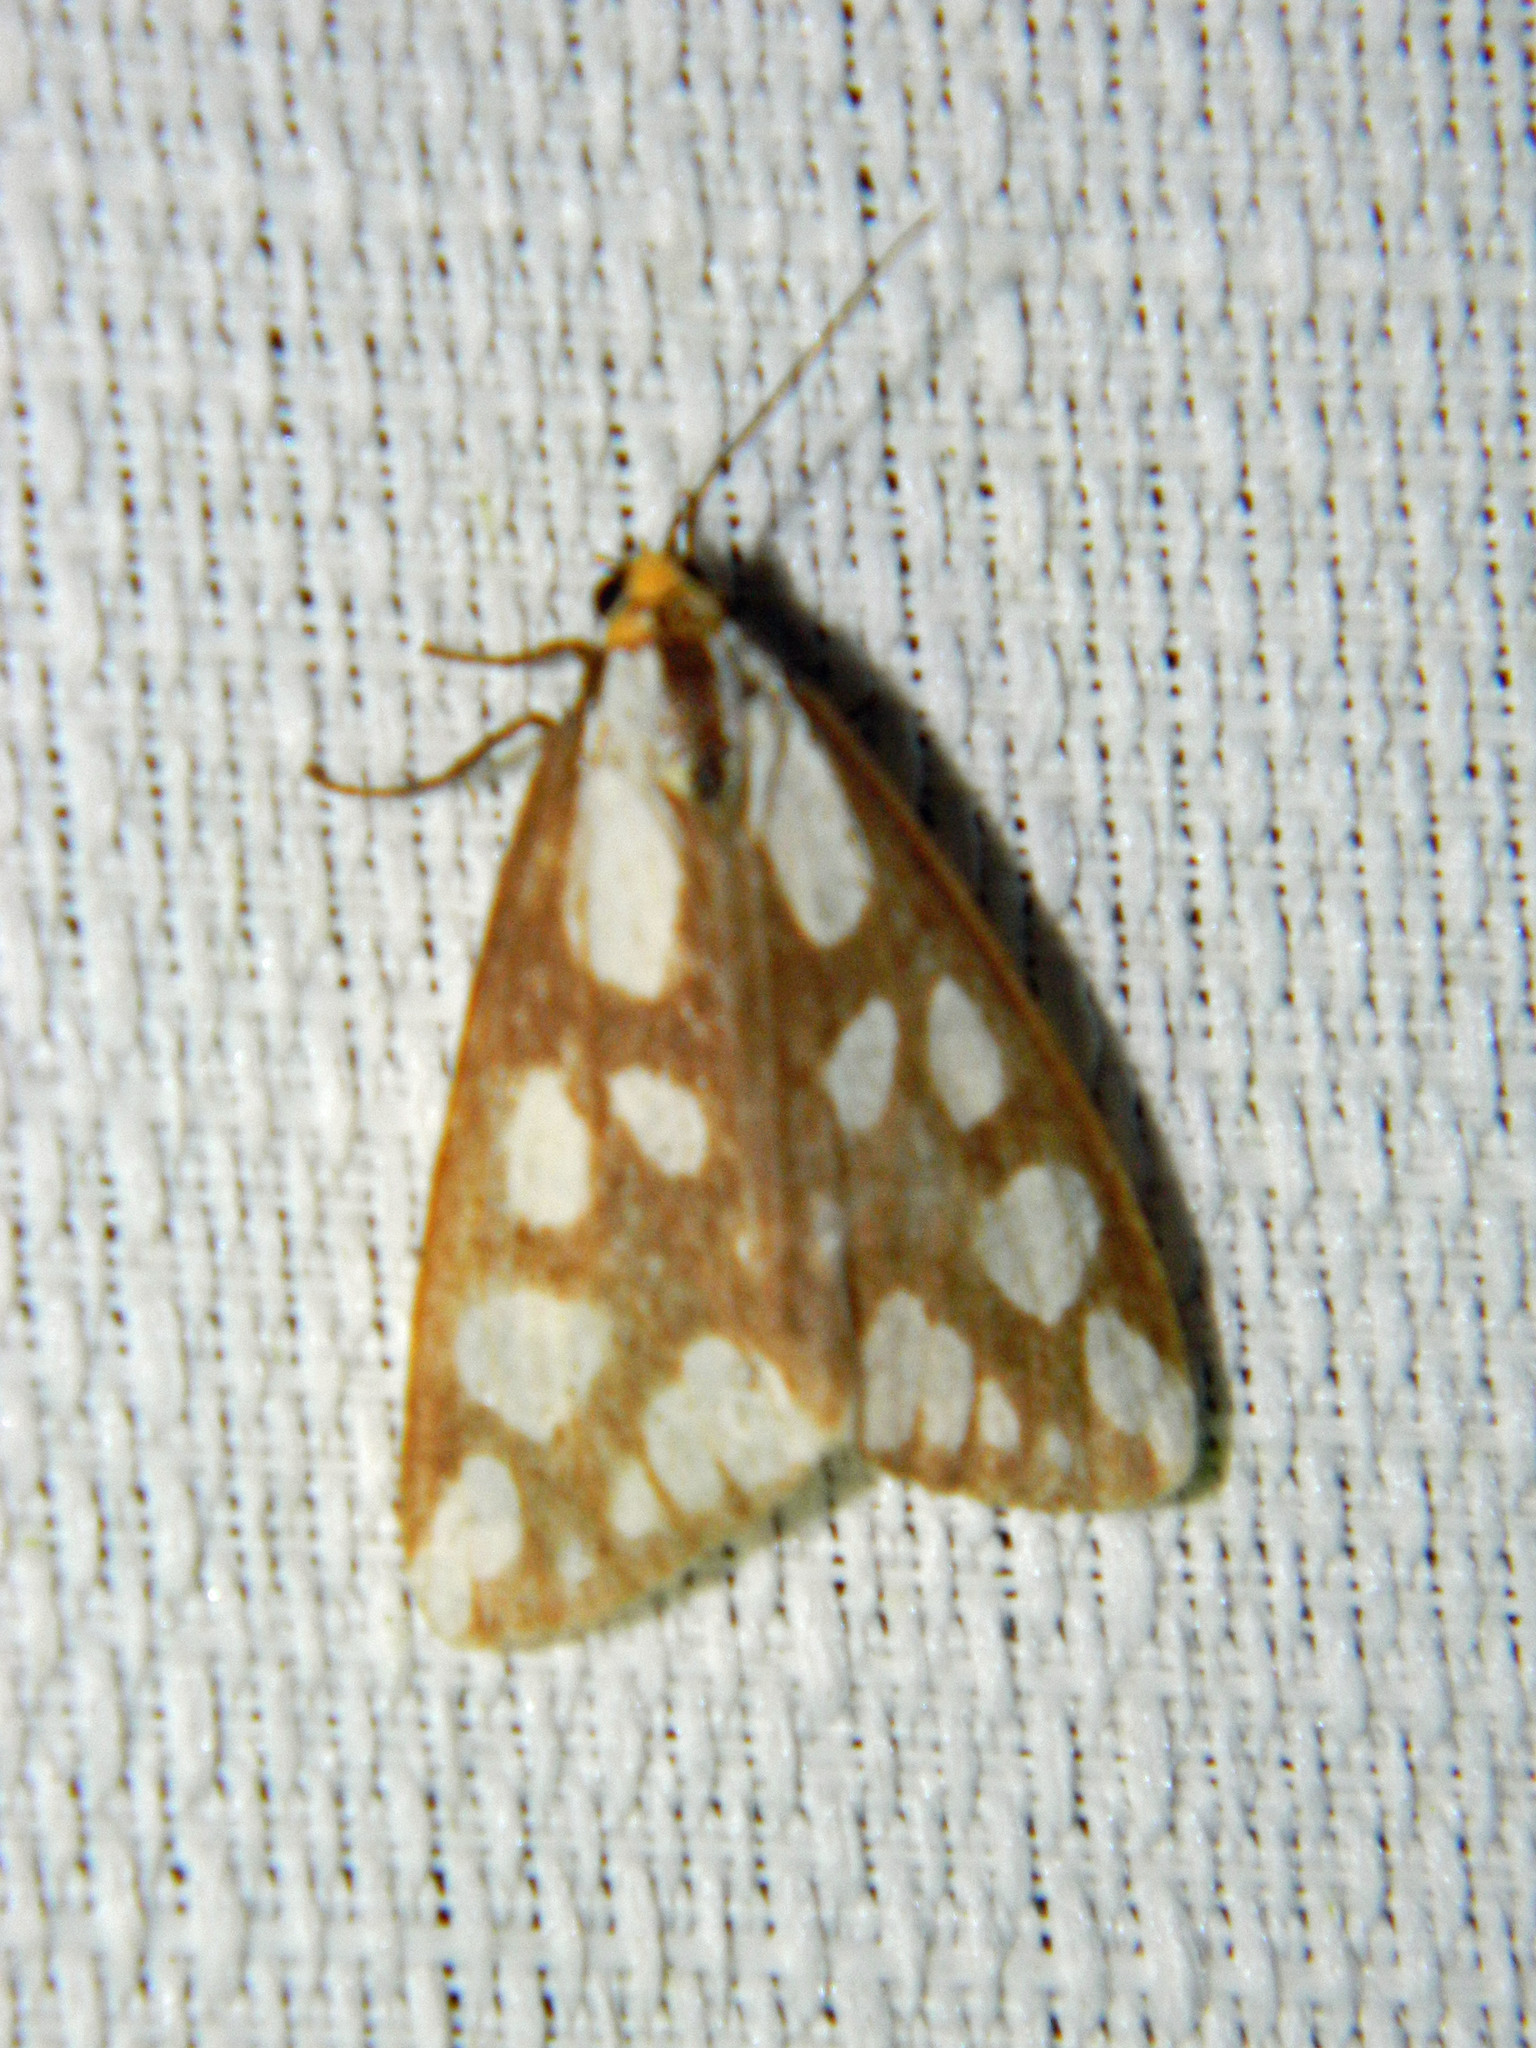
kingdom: Animalia
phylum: Arthropoda
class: Insecta
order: Lepidoptera
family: Erebidae
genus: Haploa
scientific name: Haploa confusa
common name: Confused haploa moth
